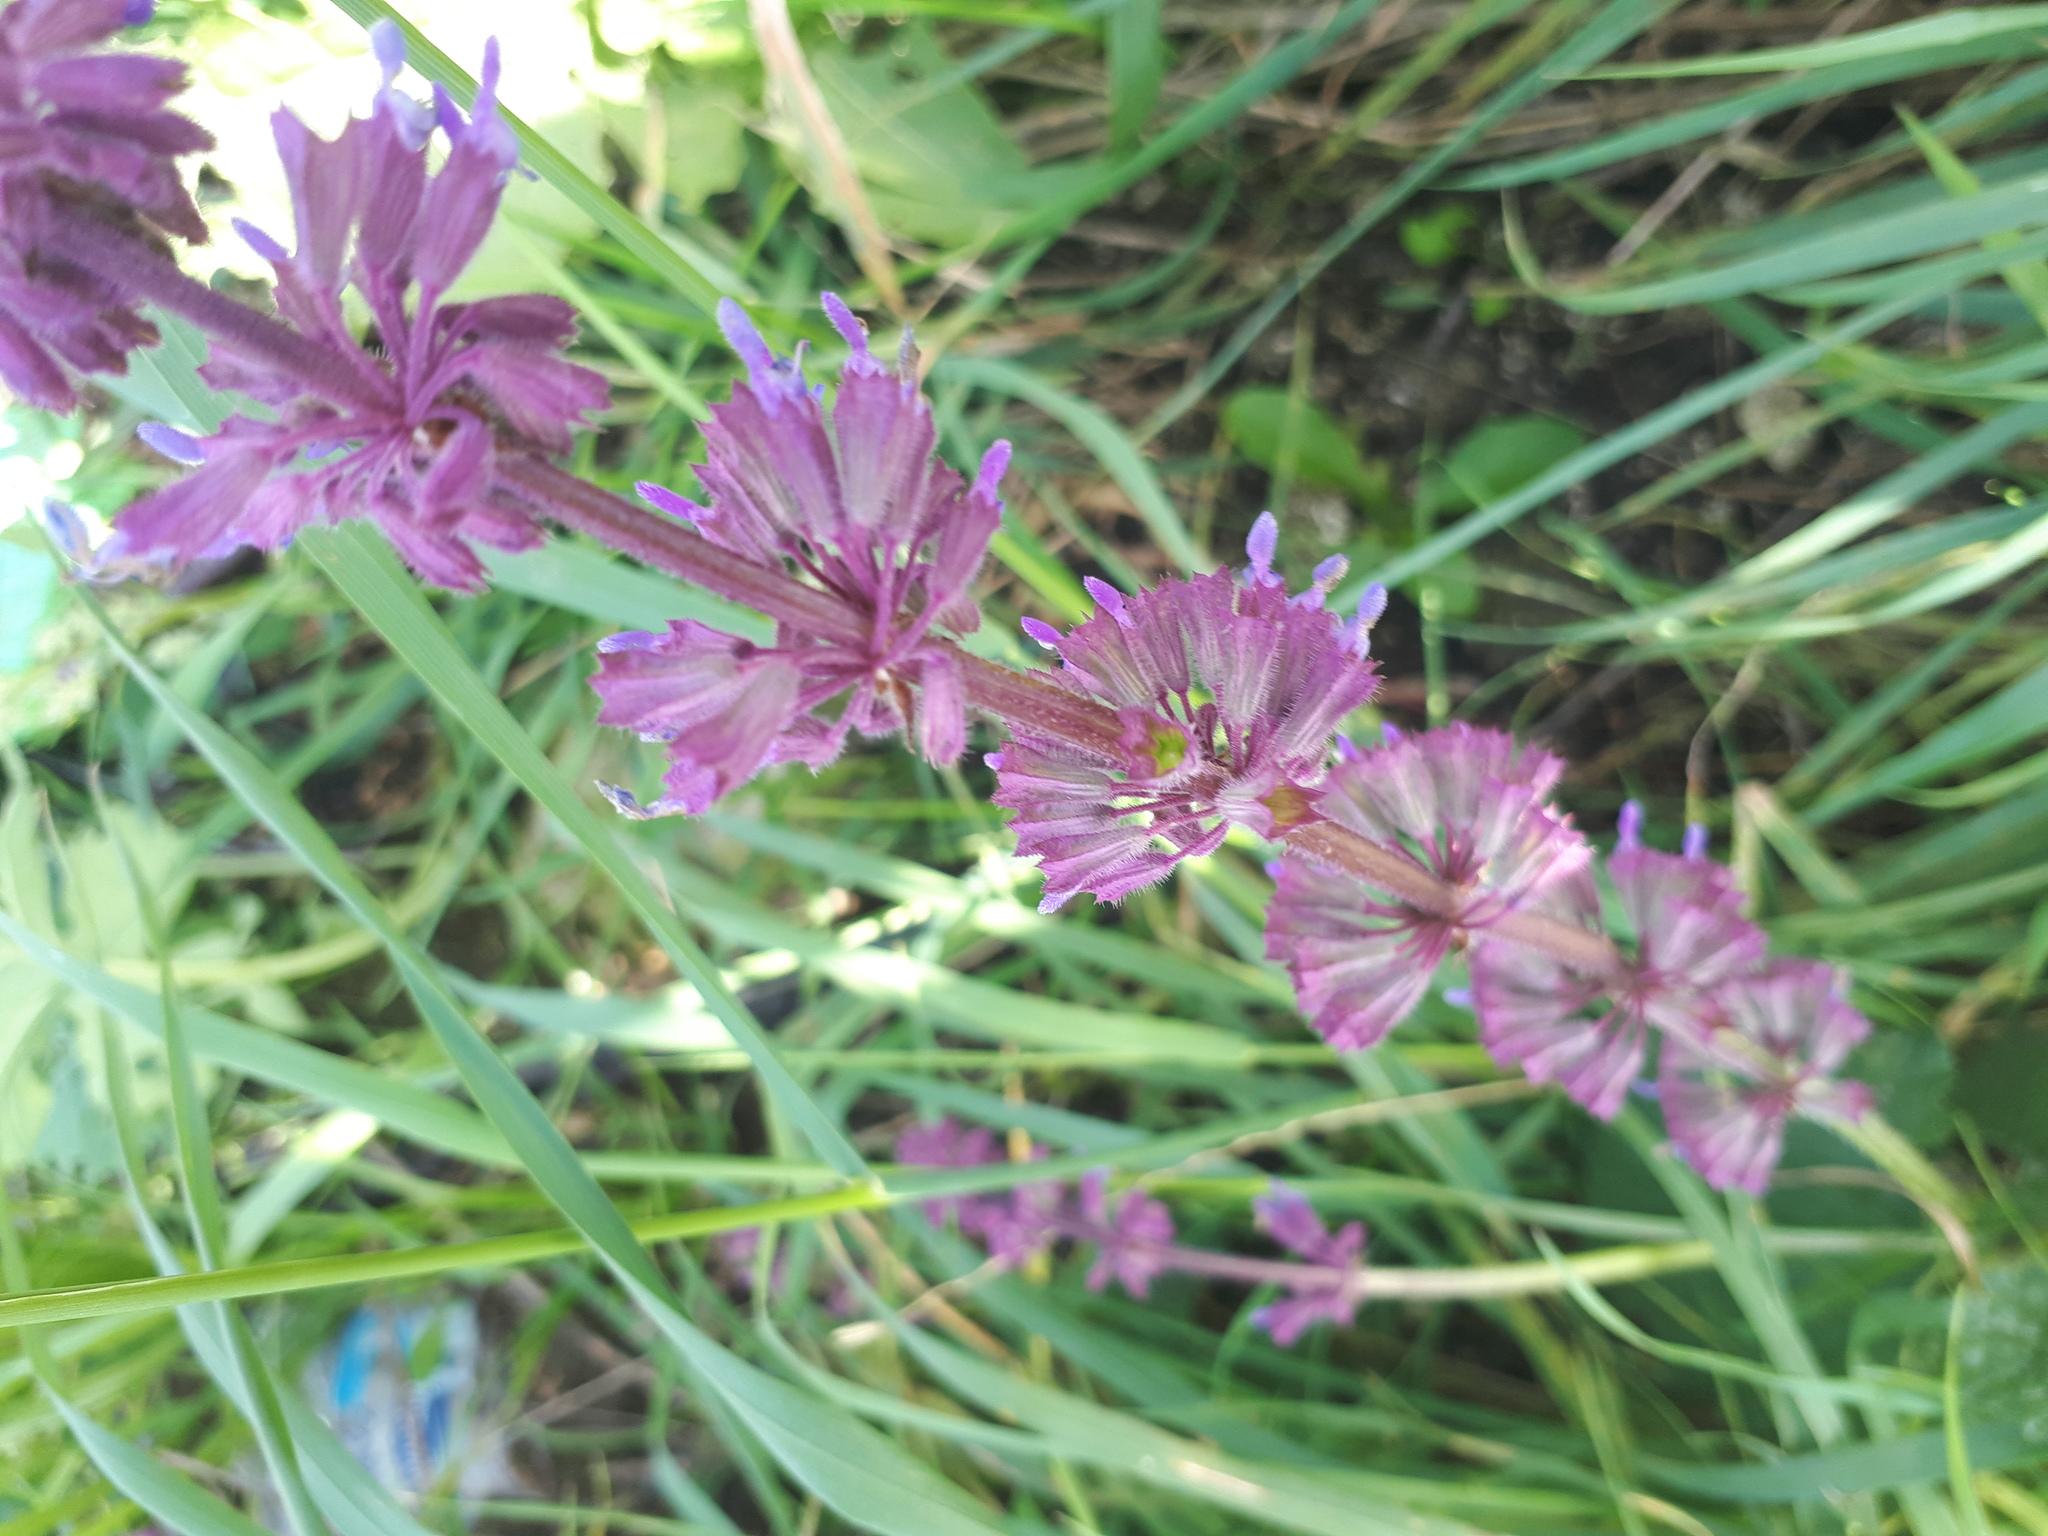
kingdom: Plantae
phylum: Tracheophyta
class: Magnoliopsida
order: Lamiales
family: Lamiaceae
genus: Salvia
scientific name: Salvia verticillata
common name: Whorled clary
